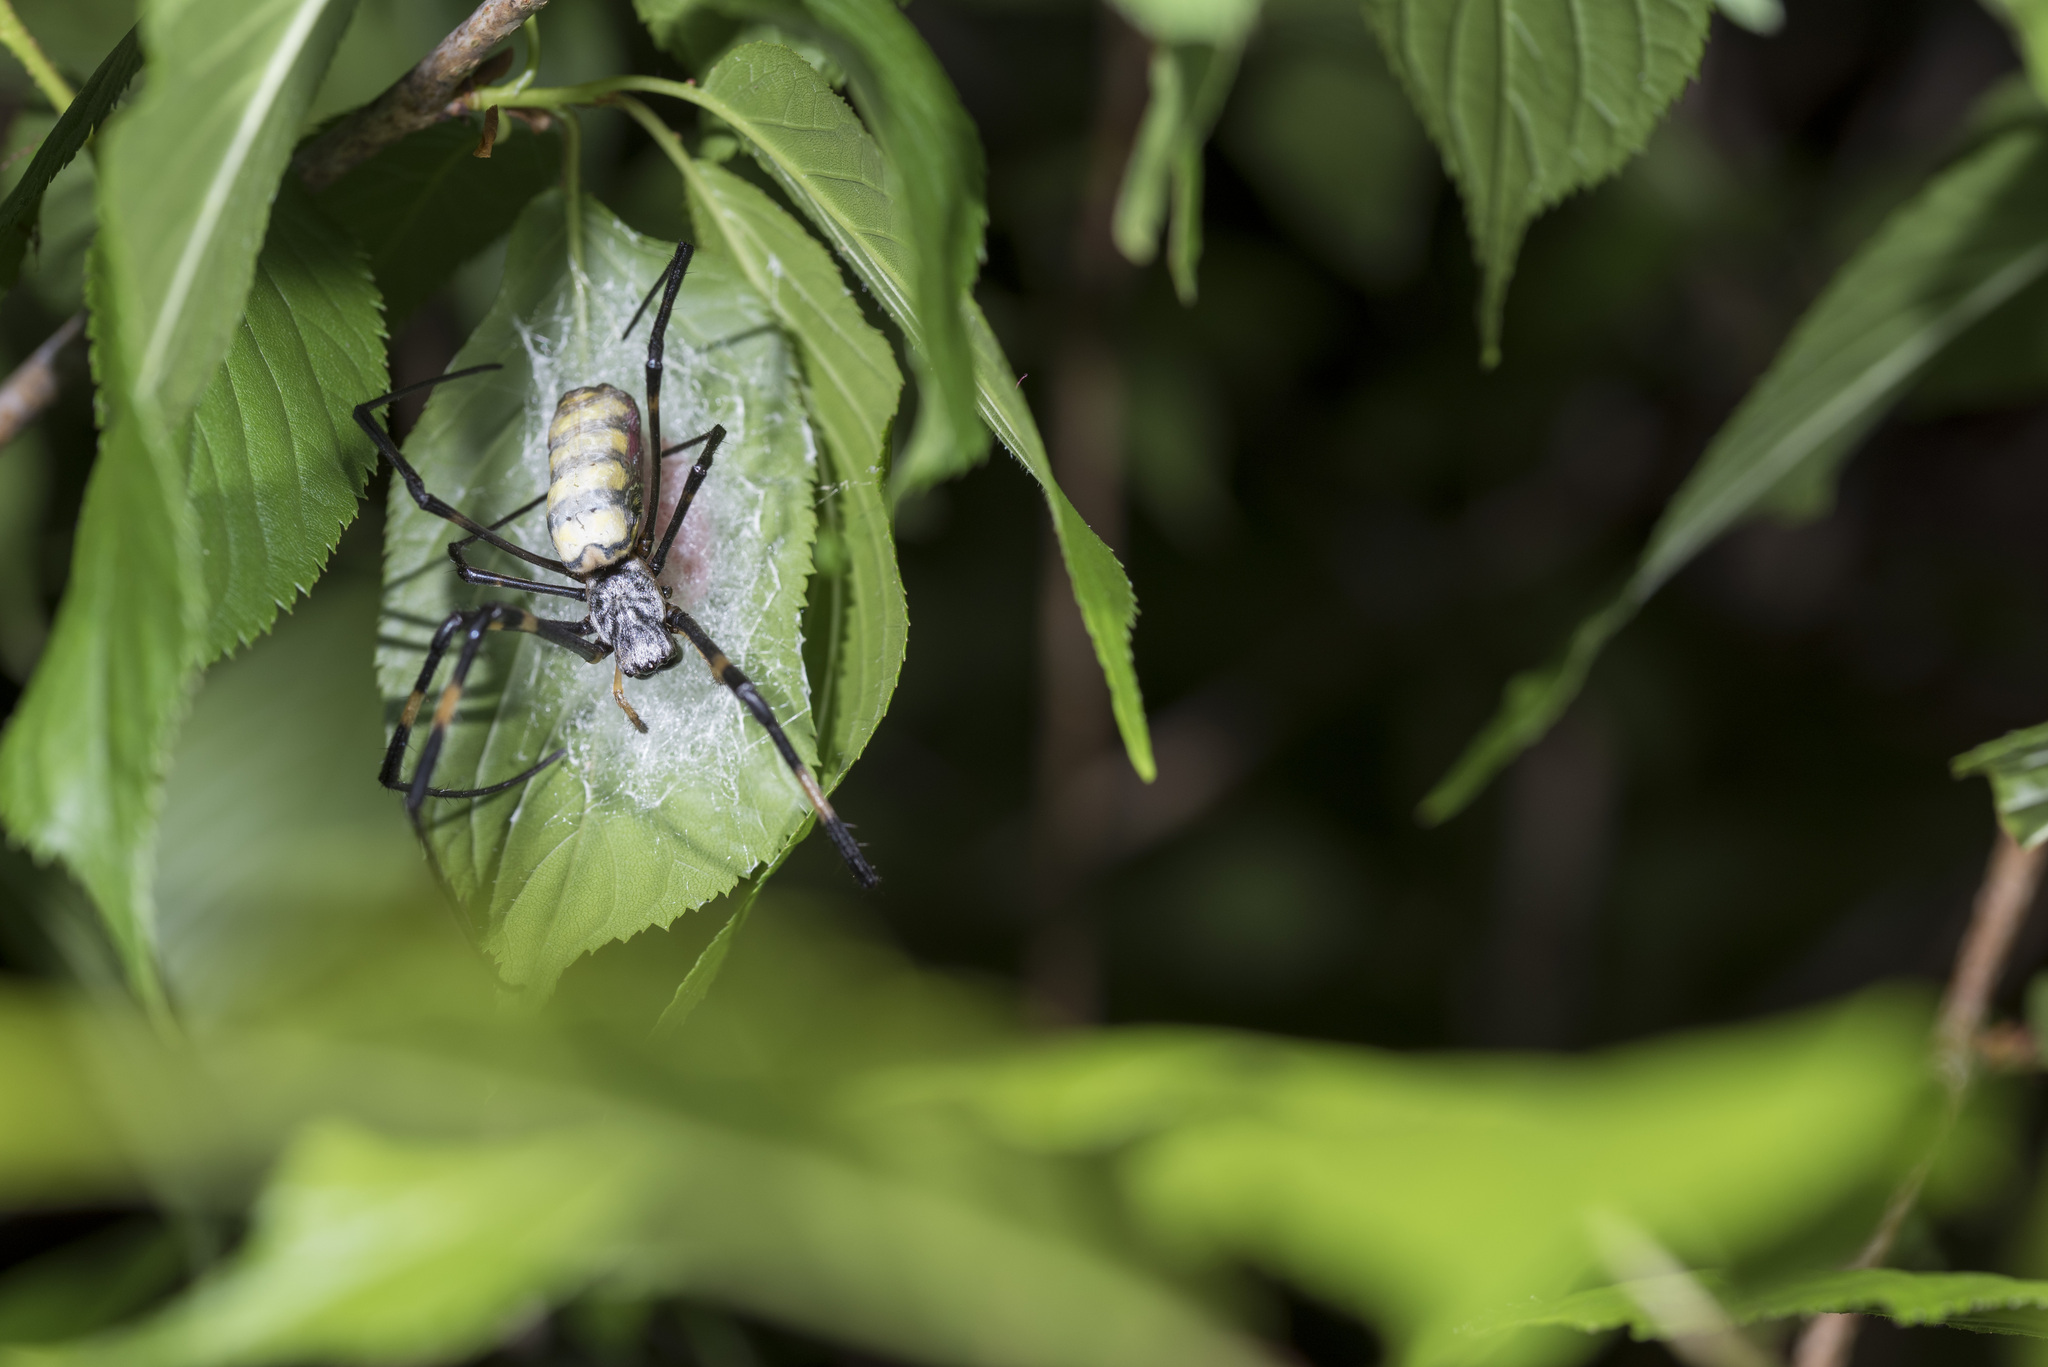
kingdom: Animalia
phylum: Arthropoda
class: Arachnida
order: Araneae
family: Araneidae
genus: Trichonephila
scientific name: Trichonephila clavata
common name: Jorō spider
